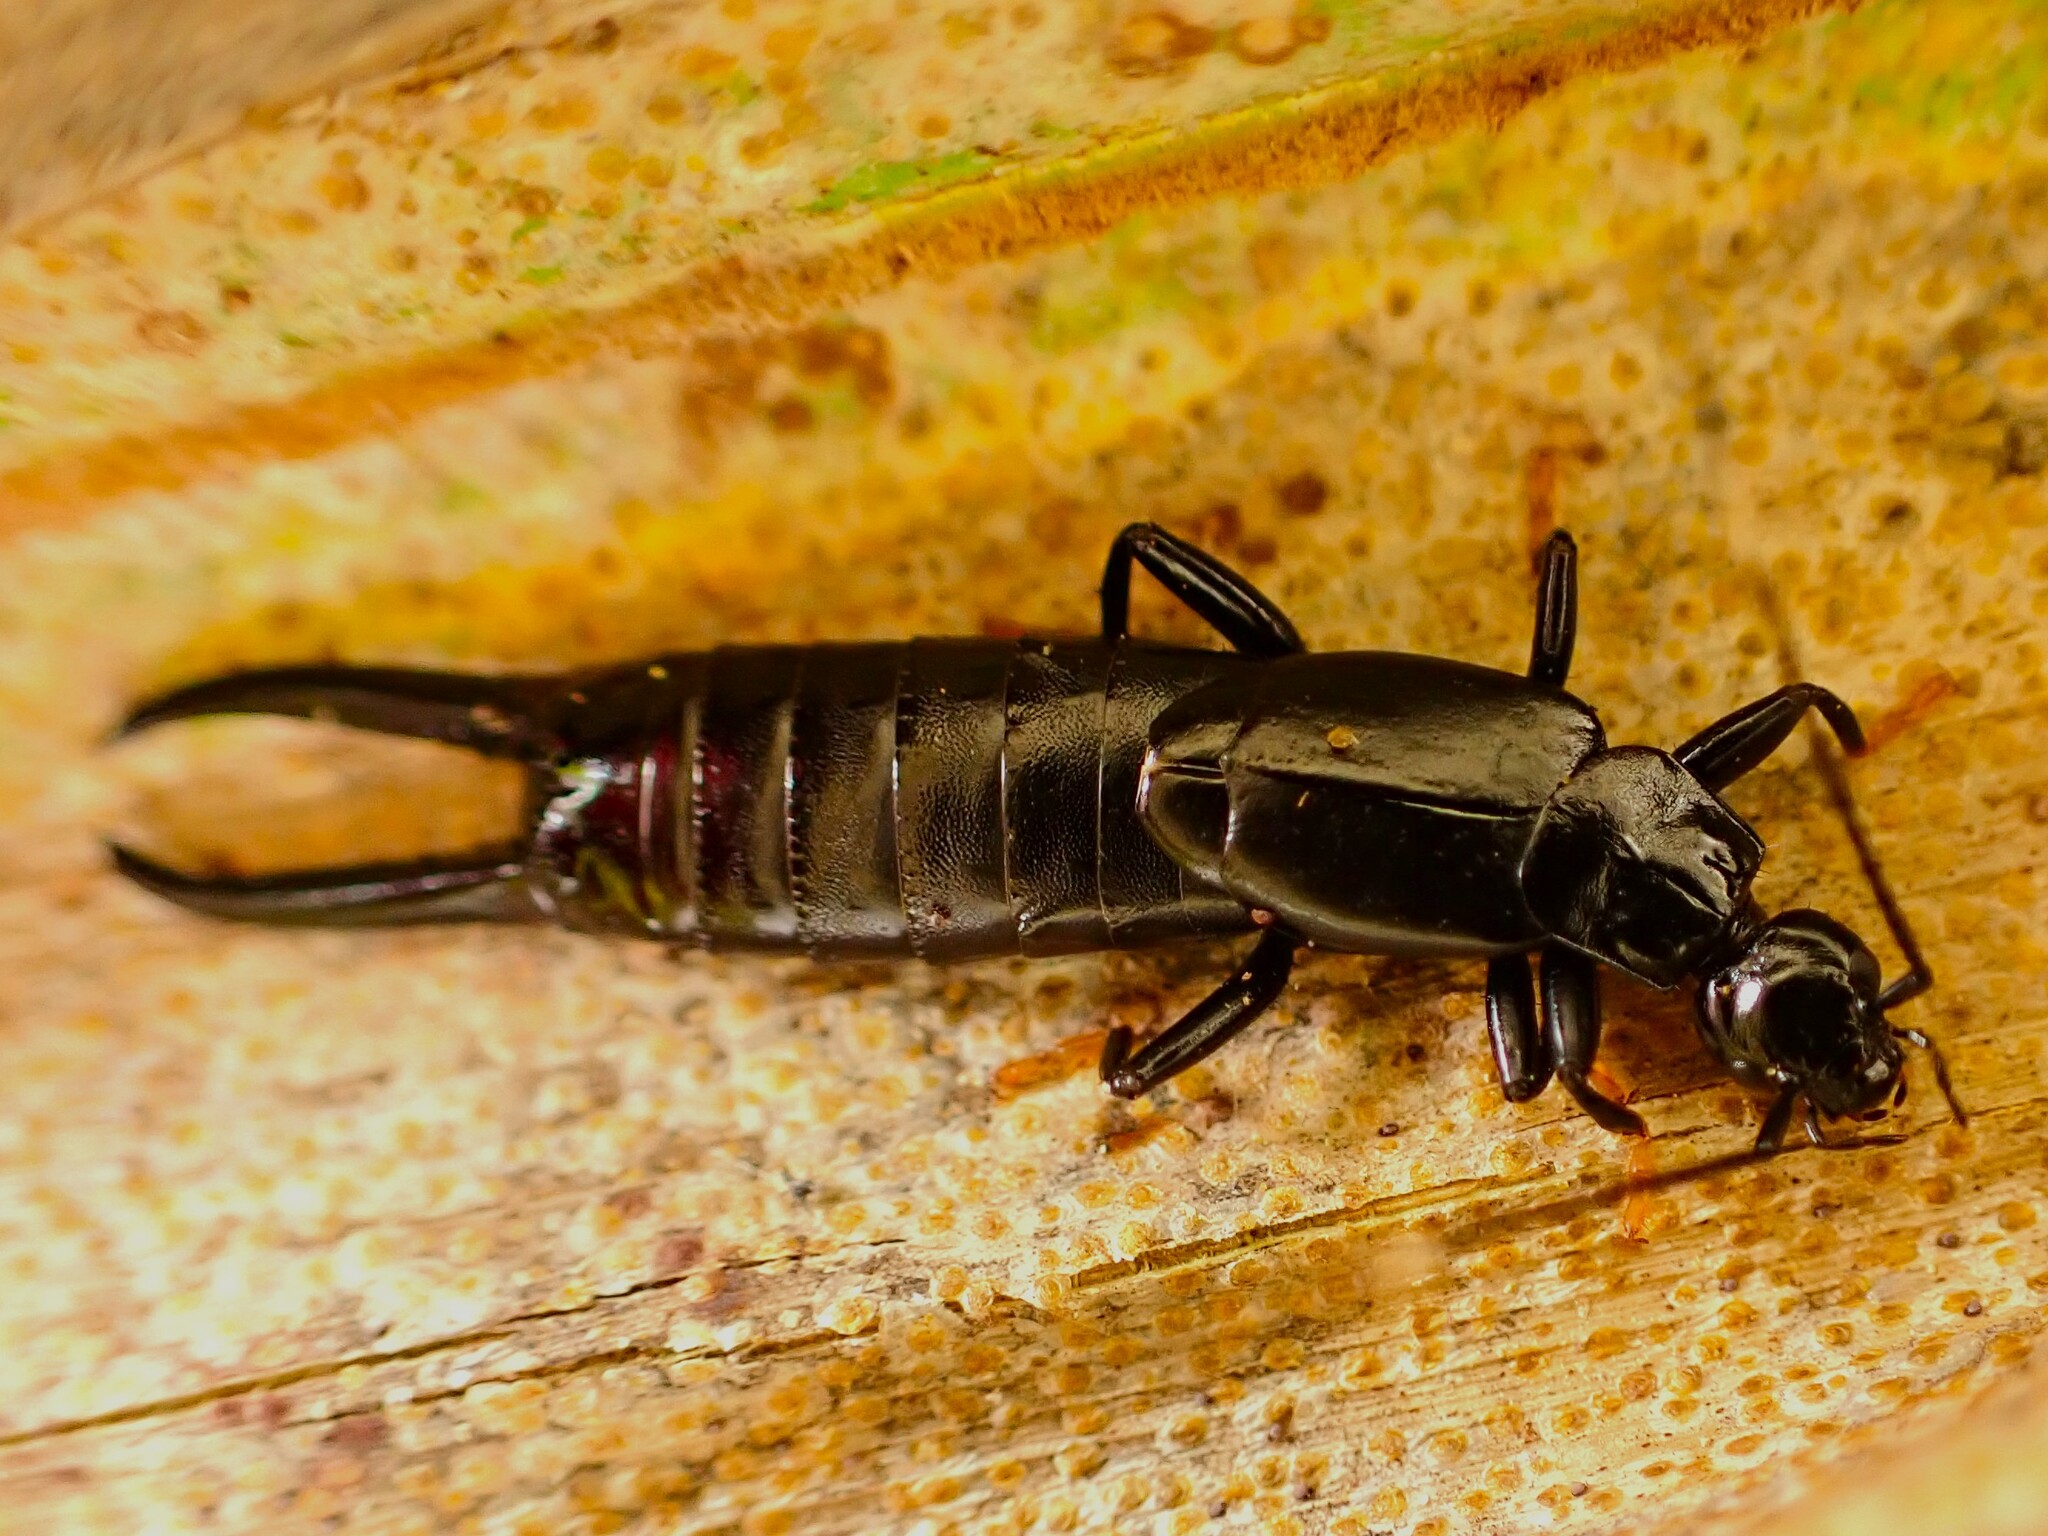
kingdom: Animalia
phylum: Arthropoda
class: Insecta
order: Dermaptera
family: Chelisochidae
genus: Chelisoches
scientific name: Chelisoches morio
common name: Black earwig
